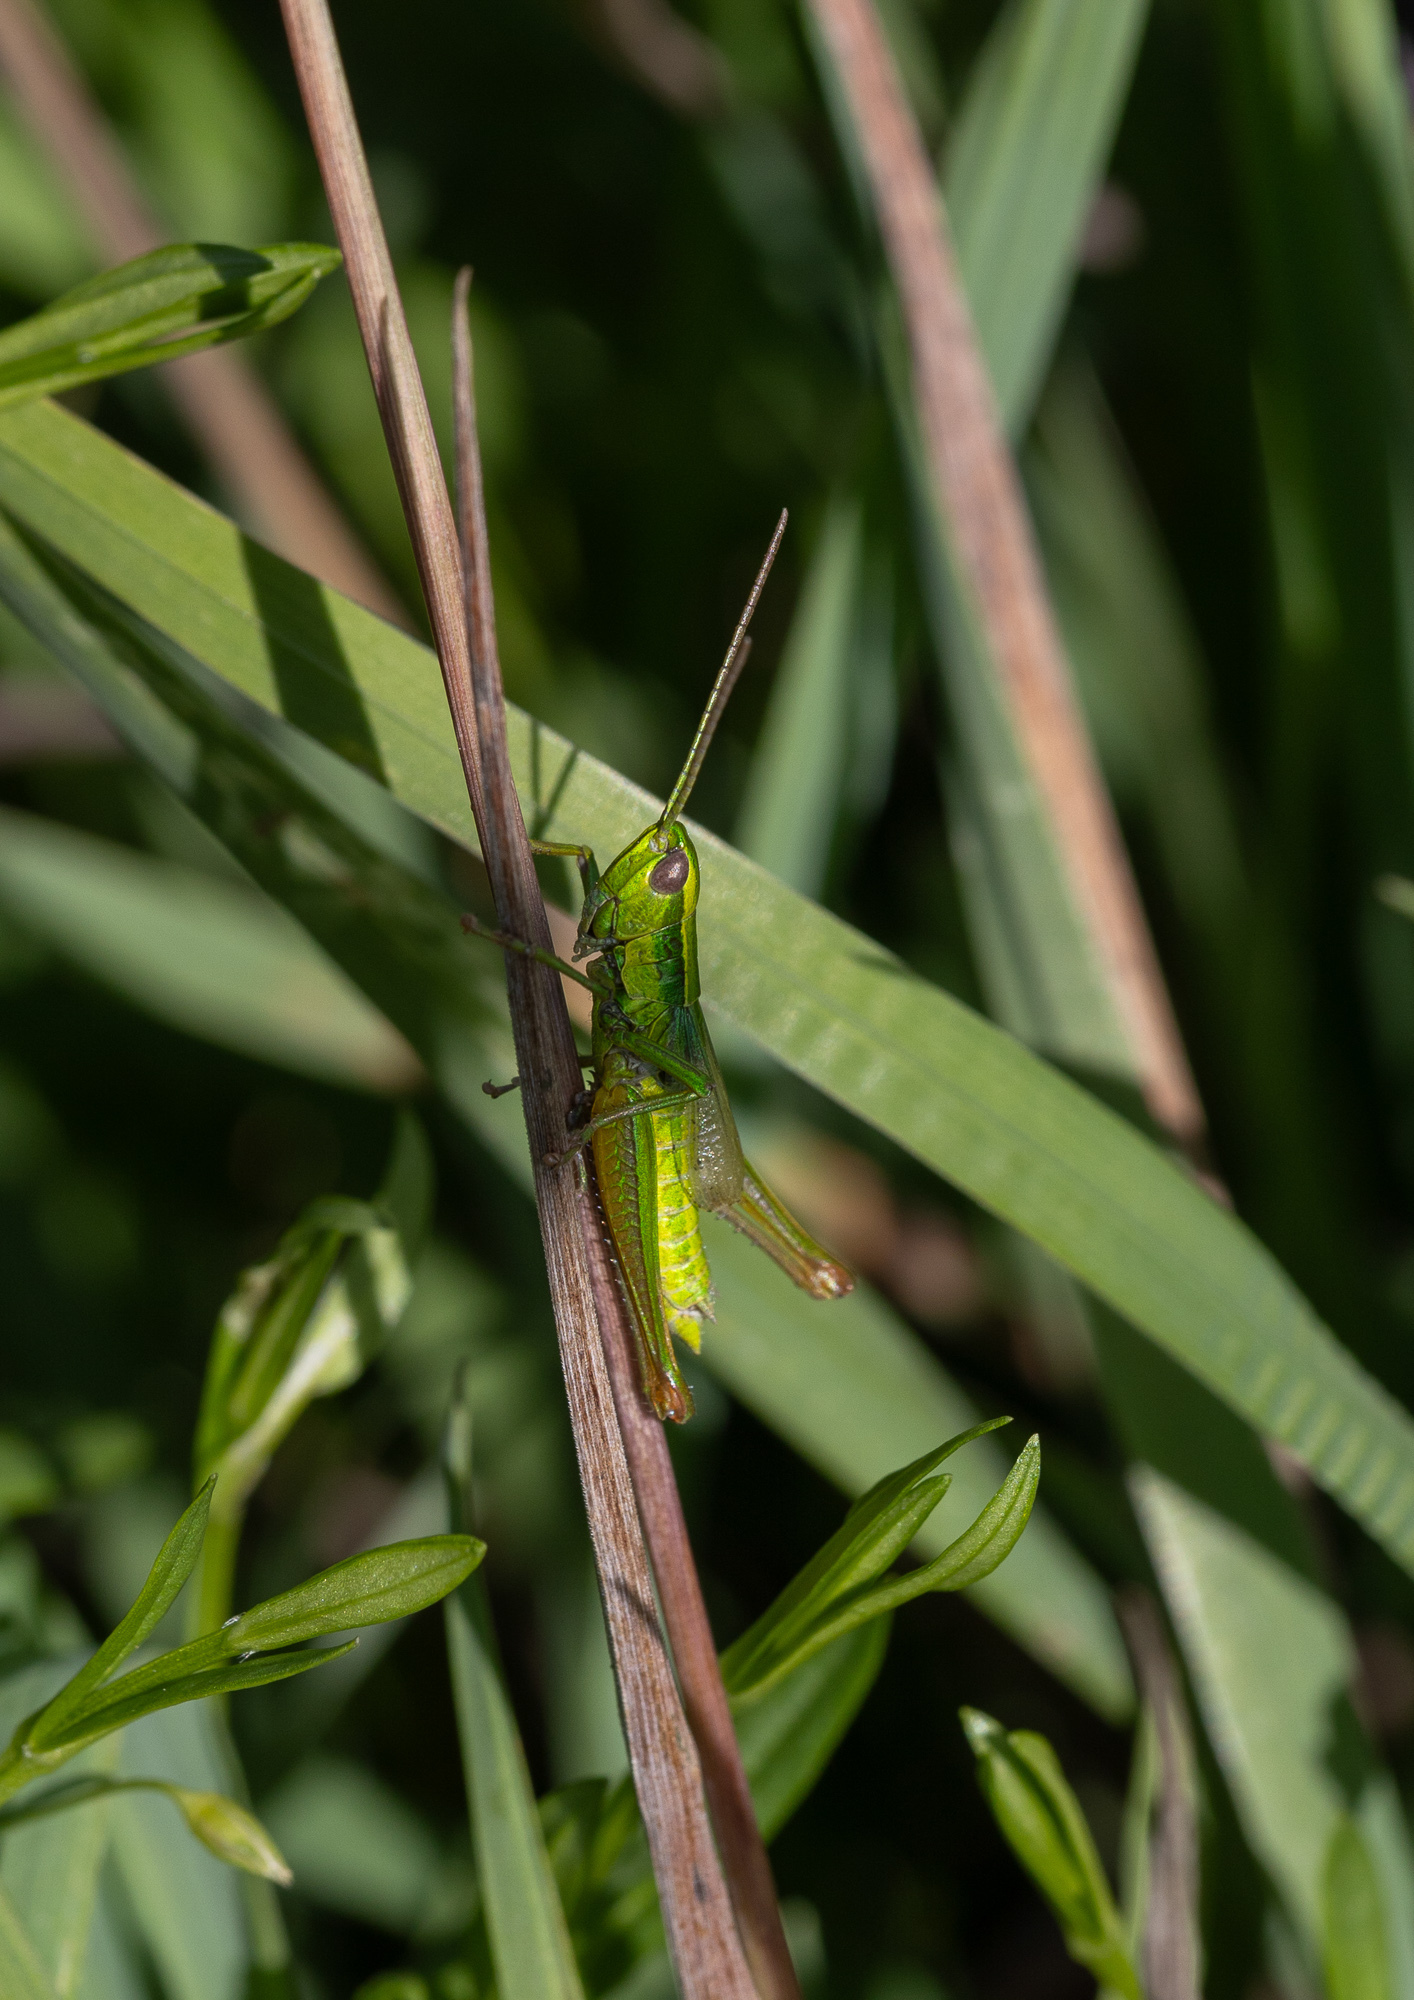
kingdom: Animalia
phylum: Arthropoda
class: Insecta
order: Orthoptera
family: Acrididae
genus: Euthystira
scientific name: Euthystira brachyptera
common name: Small gold grasshopper
